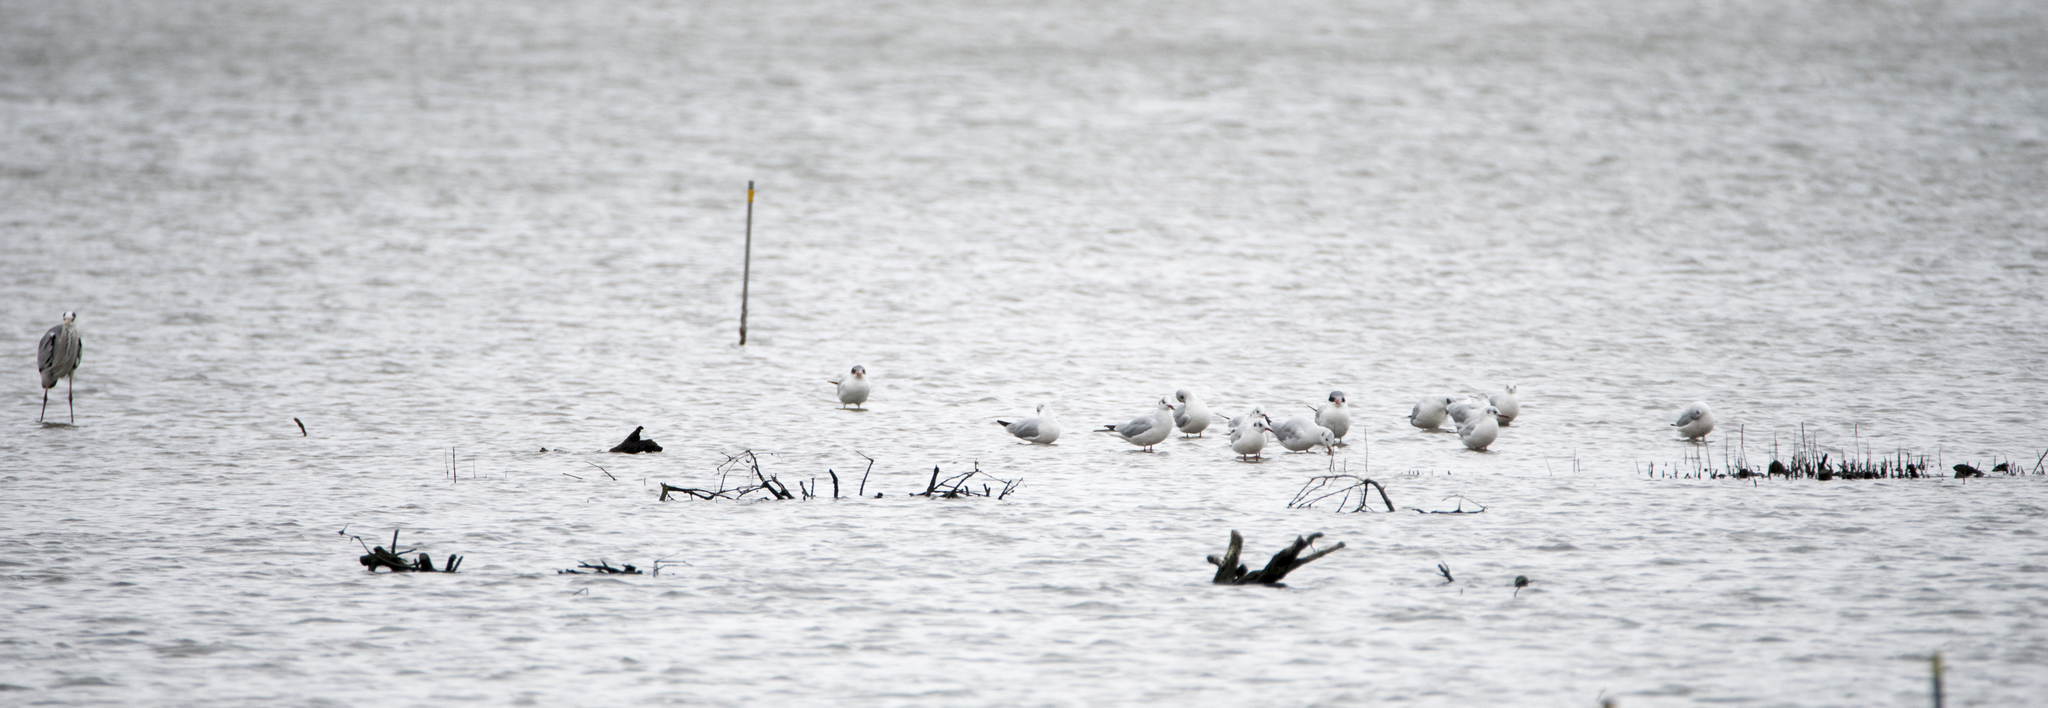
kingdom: Animalia
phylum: Chordata
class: Aves
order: Charadriiformes
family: Laridae
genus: Chroicocephalus
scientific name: Chroicocephalus ridibundus
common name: Black-headed gull
